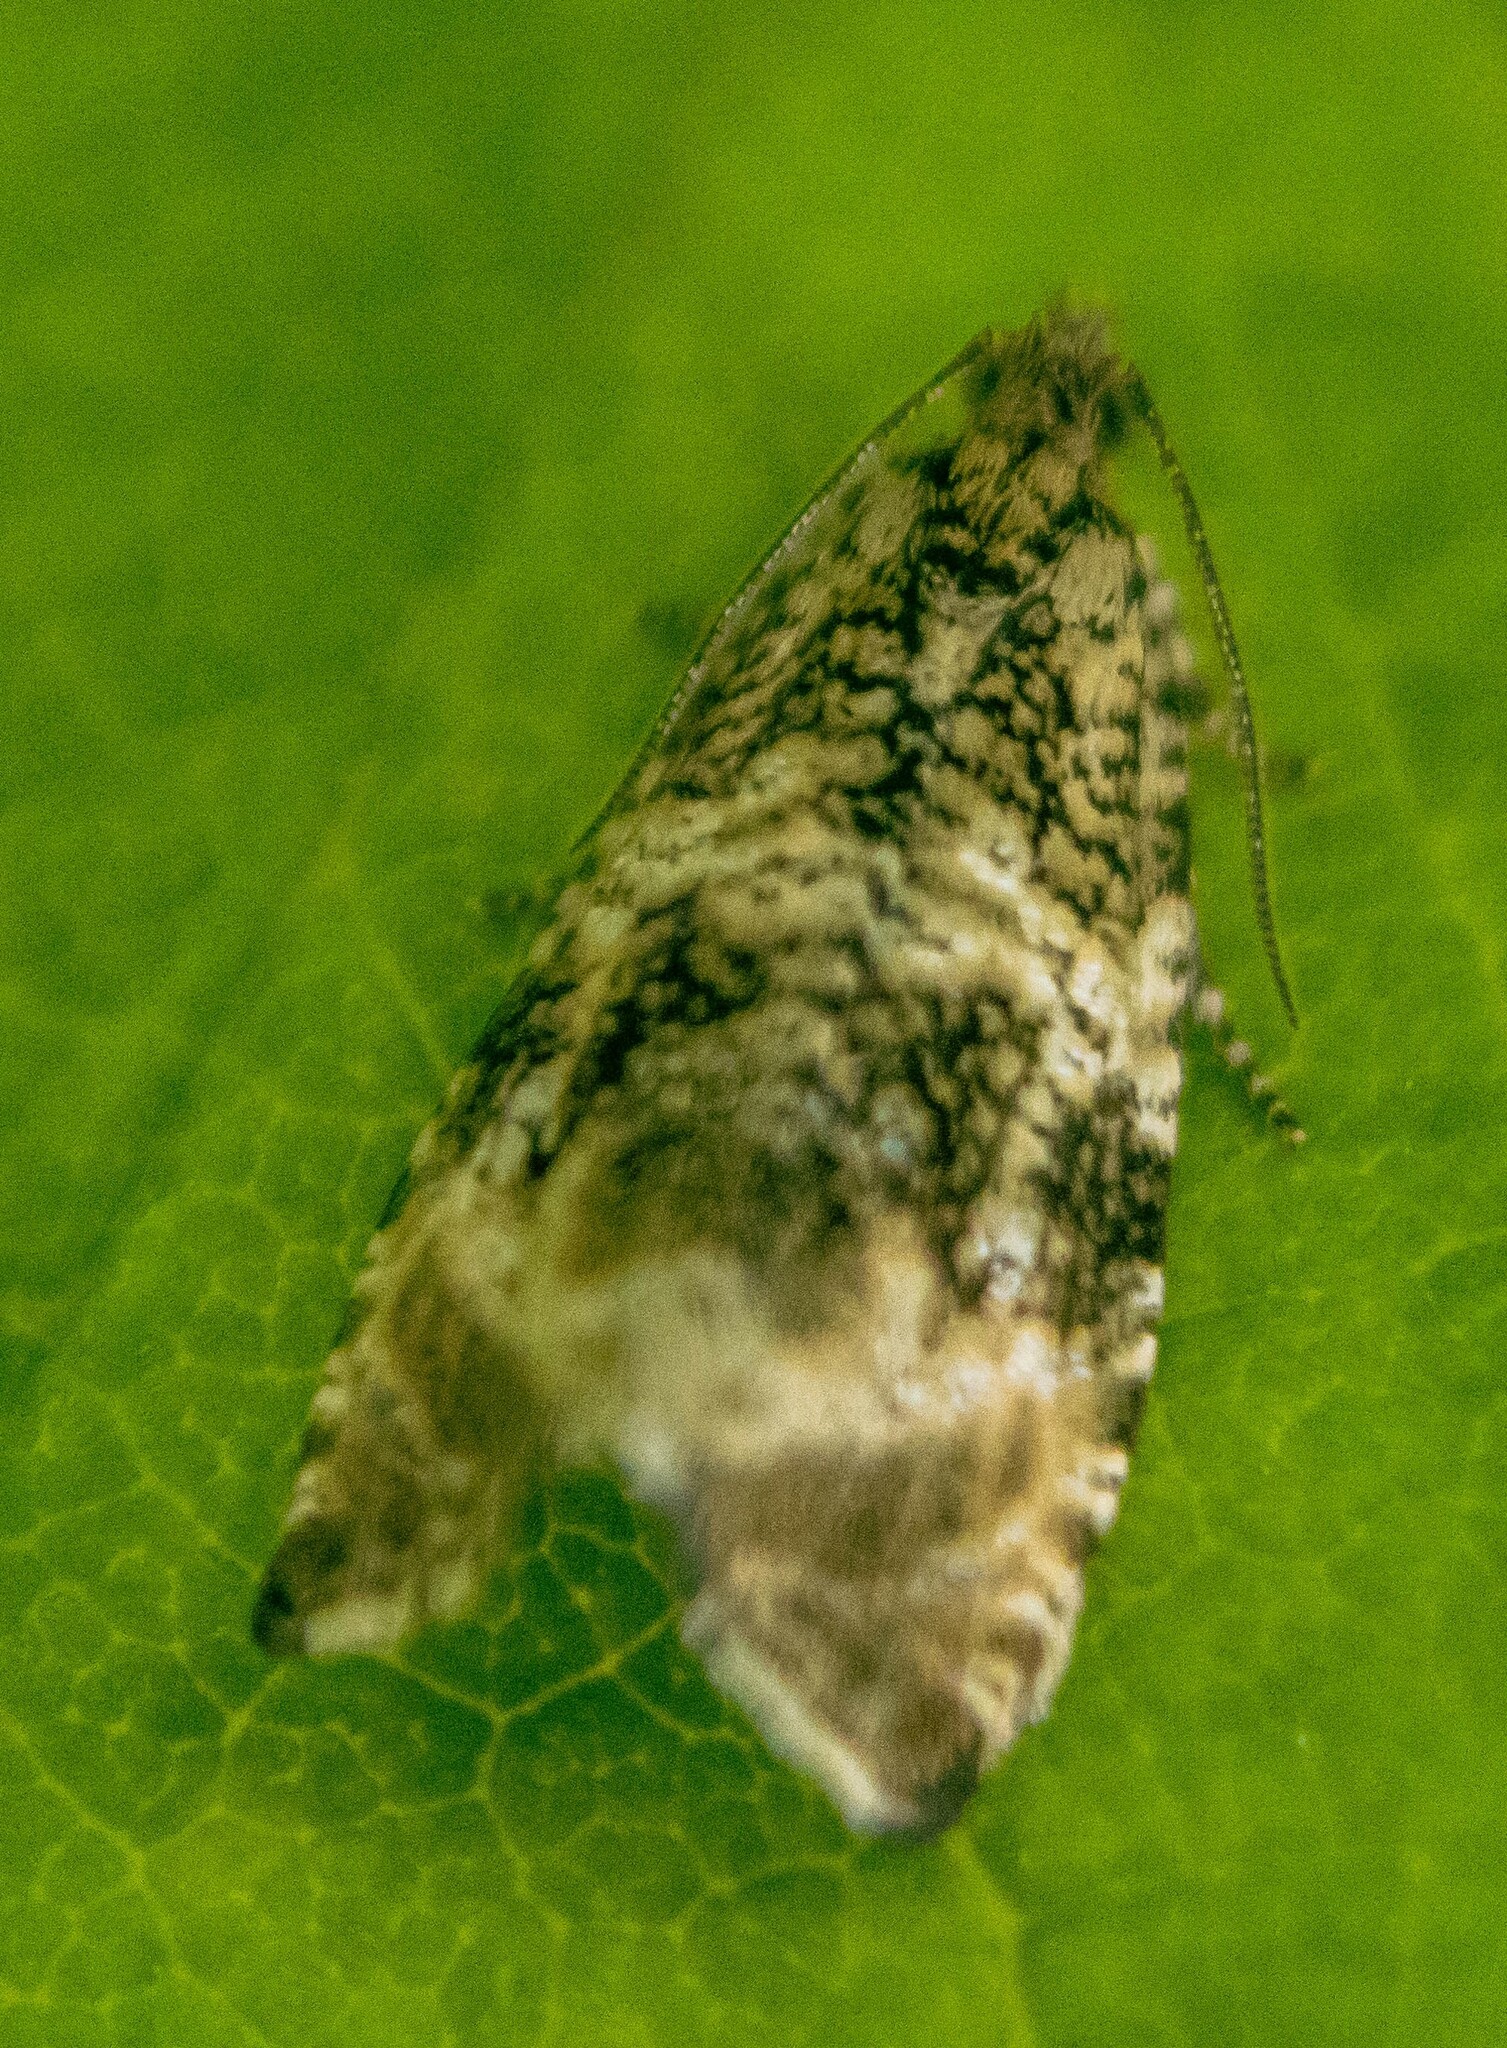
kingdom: Animalia
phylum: Arthropoda
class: Insecta
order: Lepidoptera
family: Tortricidae
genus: Syricoris
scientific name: Syricoris lacunana
